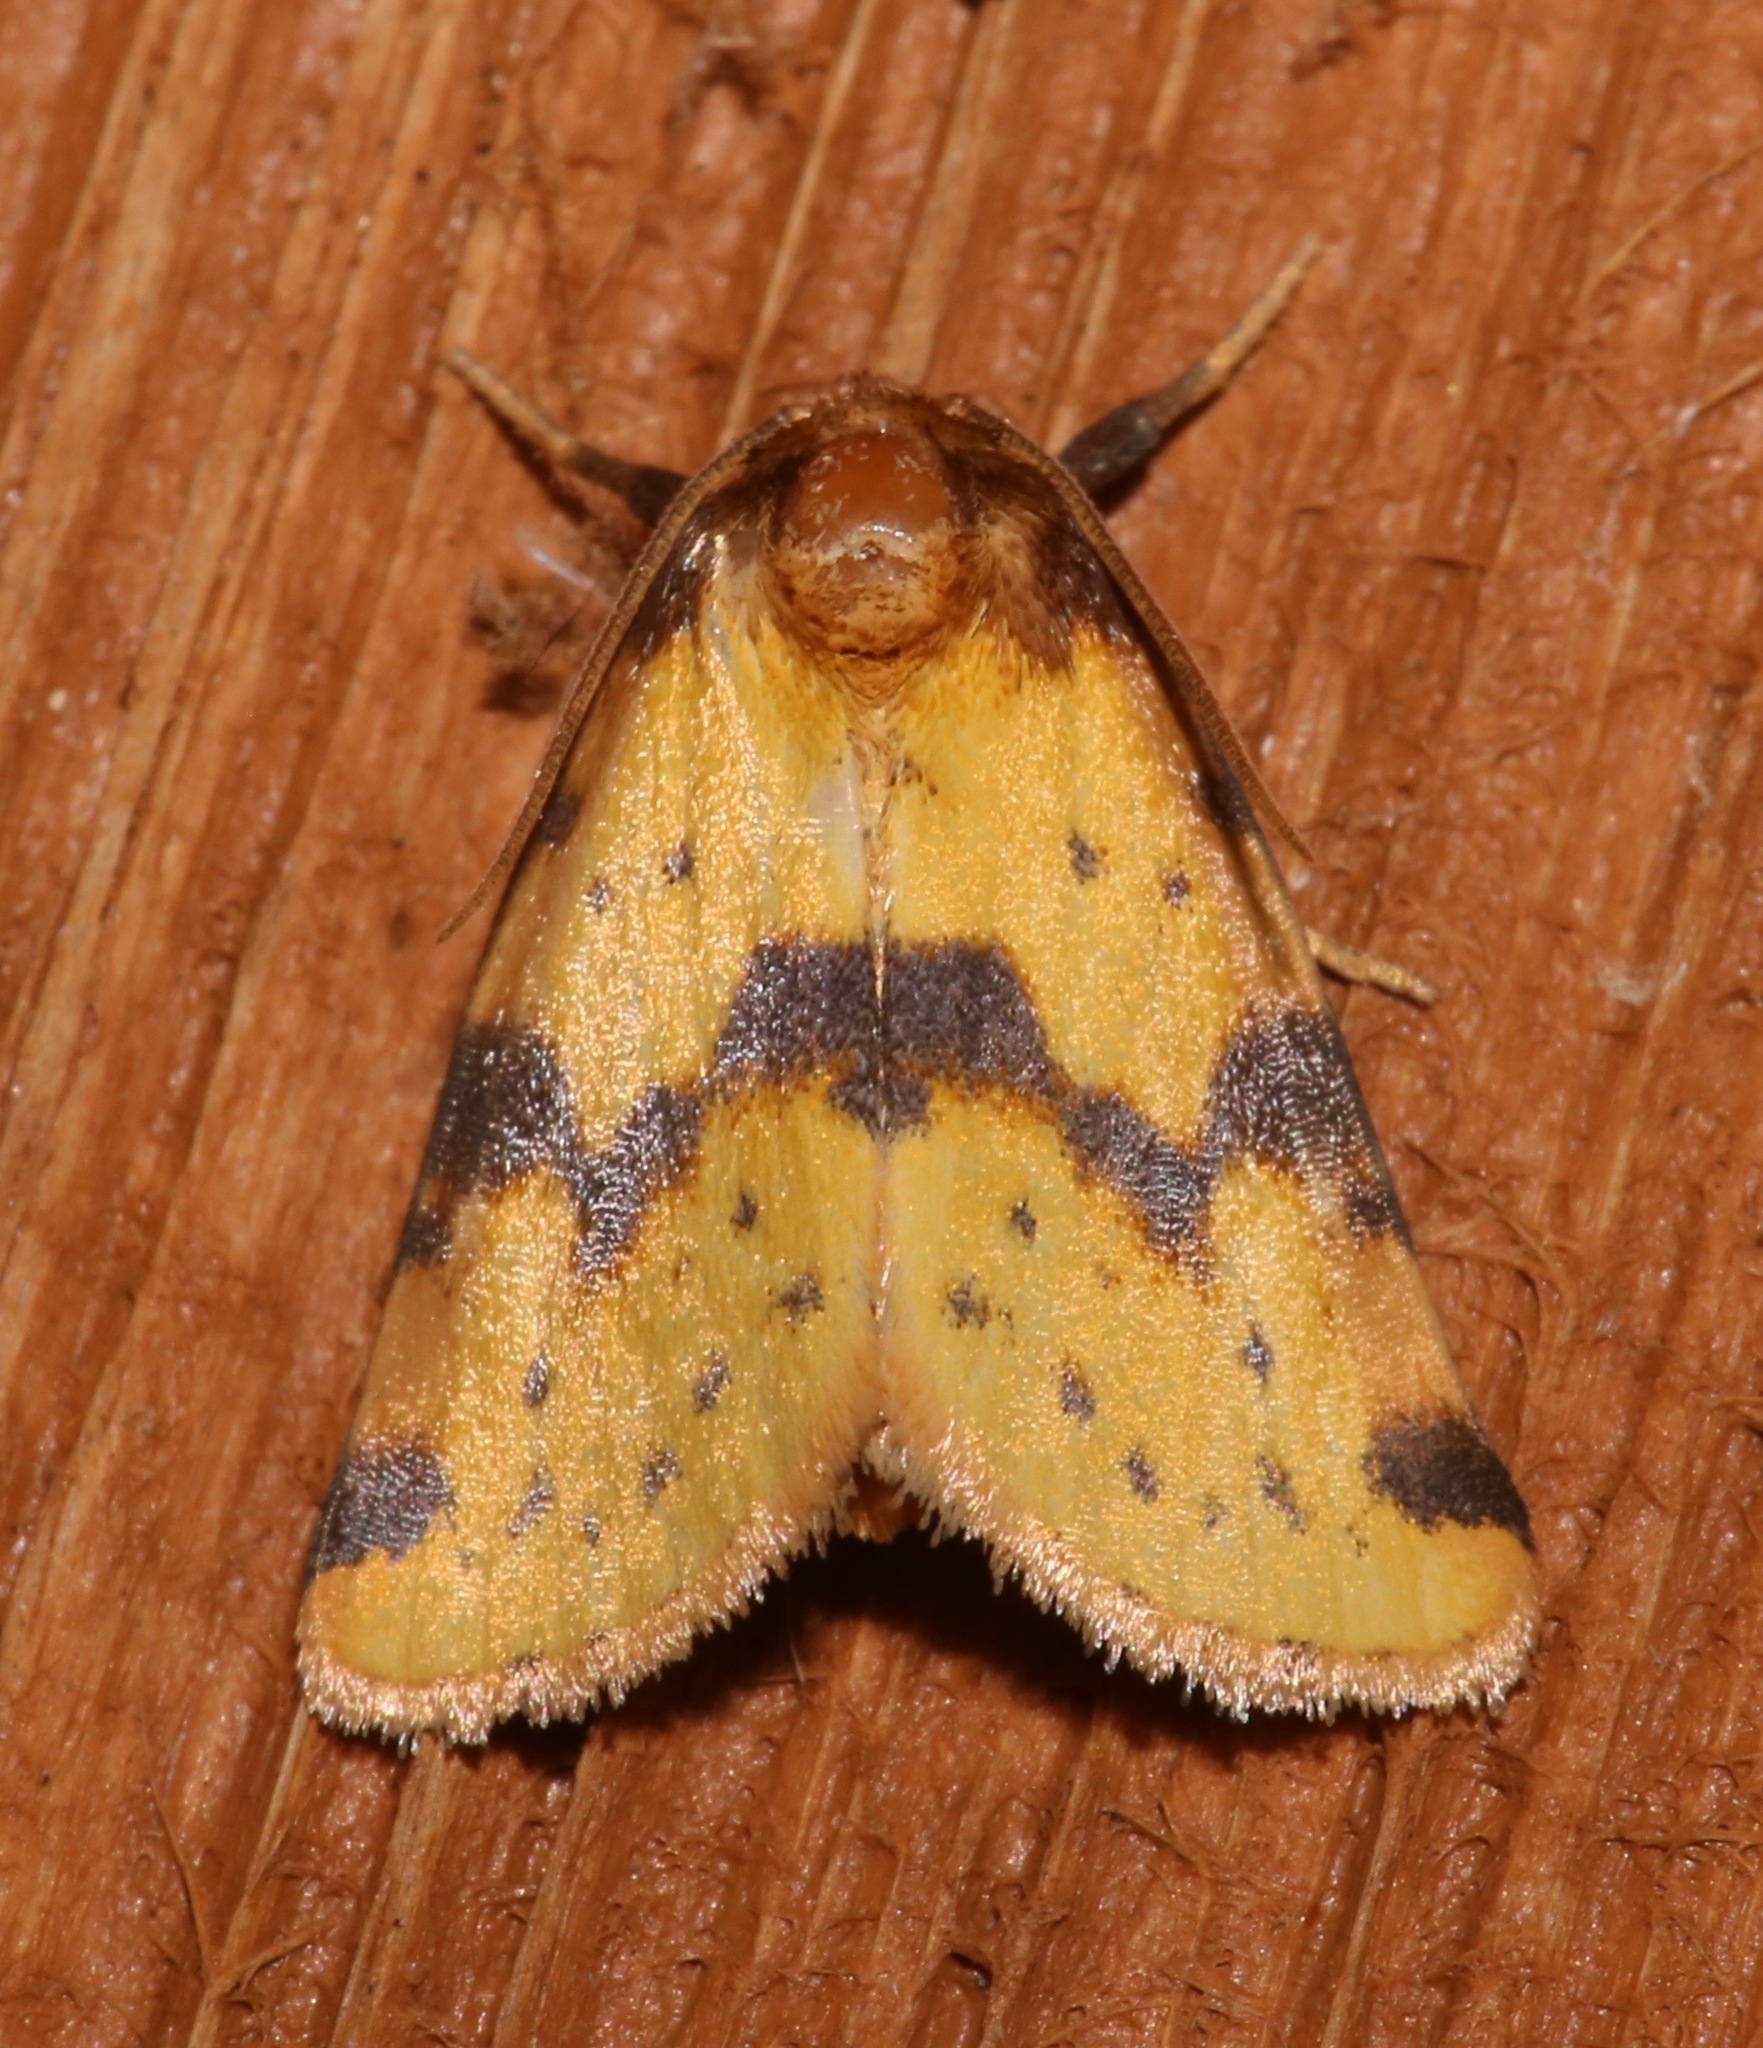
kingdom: Animalia
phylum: Arthropoda
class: Insecta
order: Lepidoptera
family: Noctuidae
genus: Azenia
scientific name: Azenia obtusa
